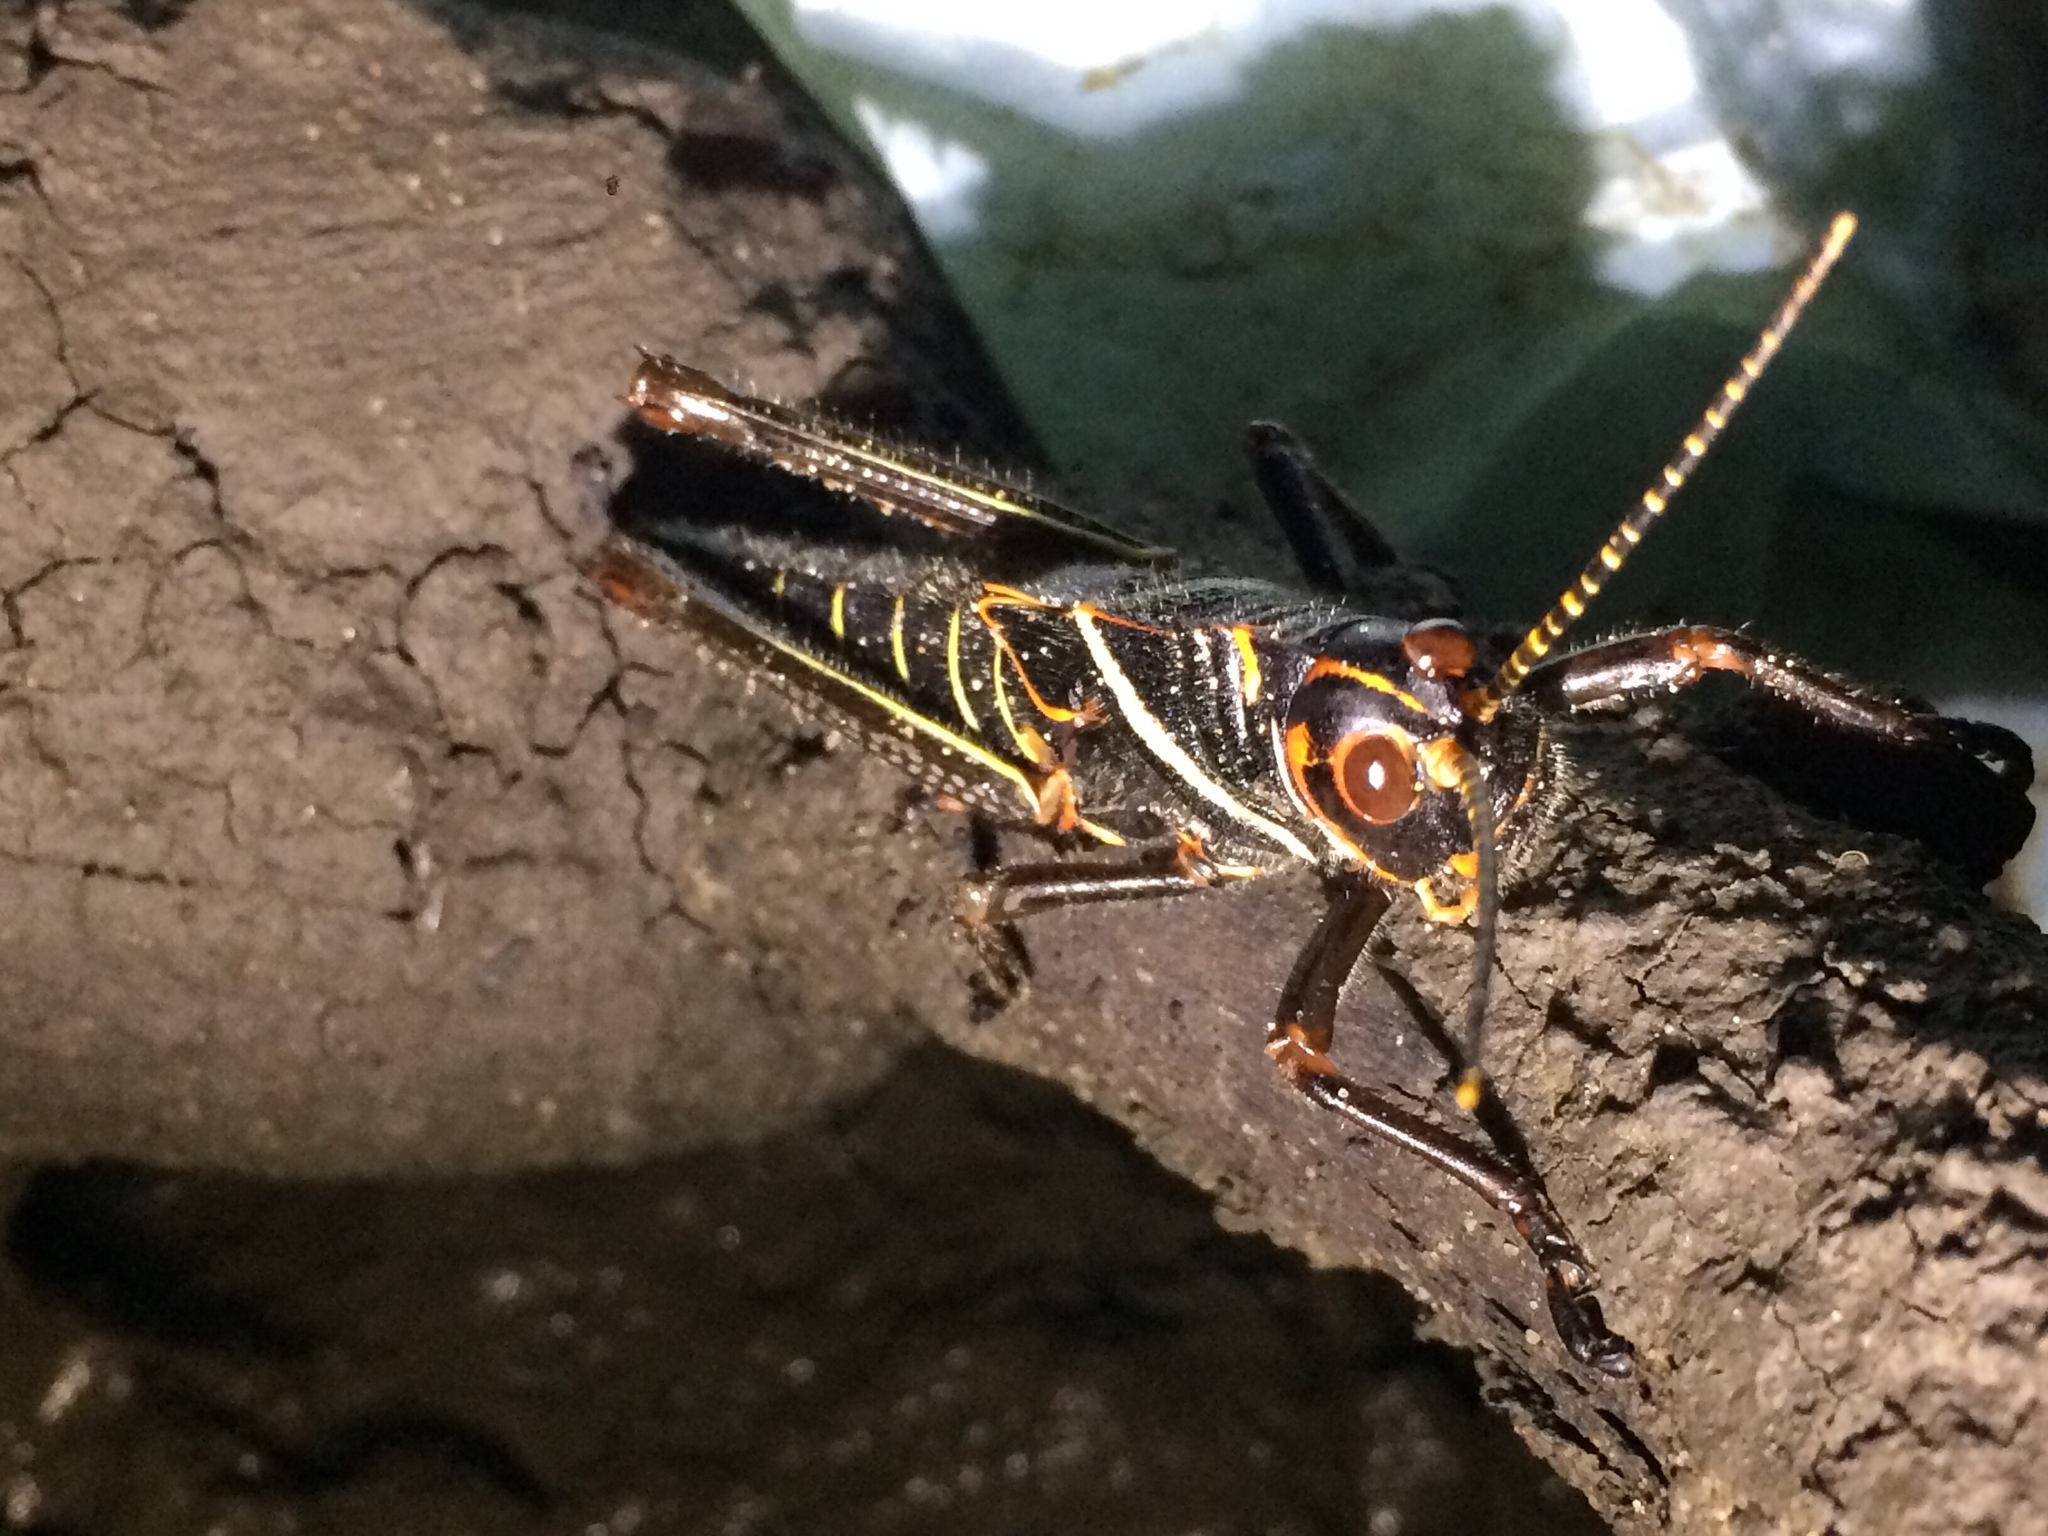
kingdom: Animalia
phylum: Arthropoda
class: Insecta
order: Orthoptera
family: Romaleidae
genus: Tropidacris
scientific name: Tropidacris collaris
